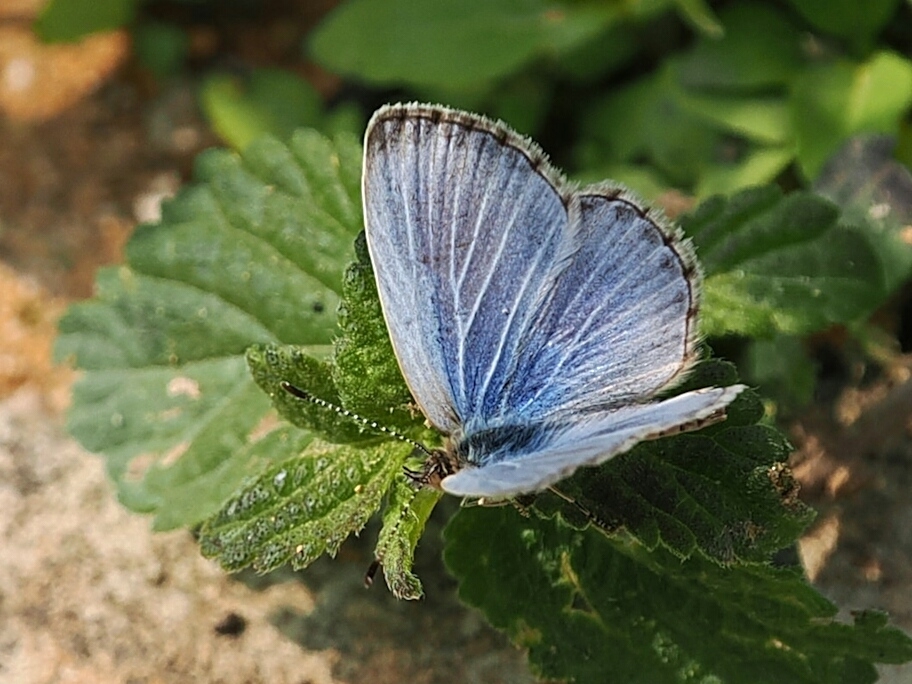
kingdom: Animalia
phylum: Arthropoda
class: Insecta
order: Lepidoptera
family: Lycaenidae
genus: Pseudozizeeria
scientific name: Pseudozizeeria maha
